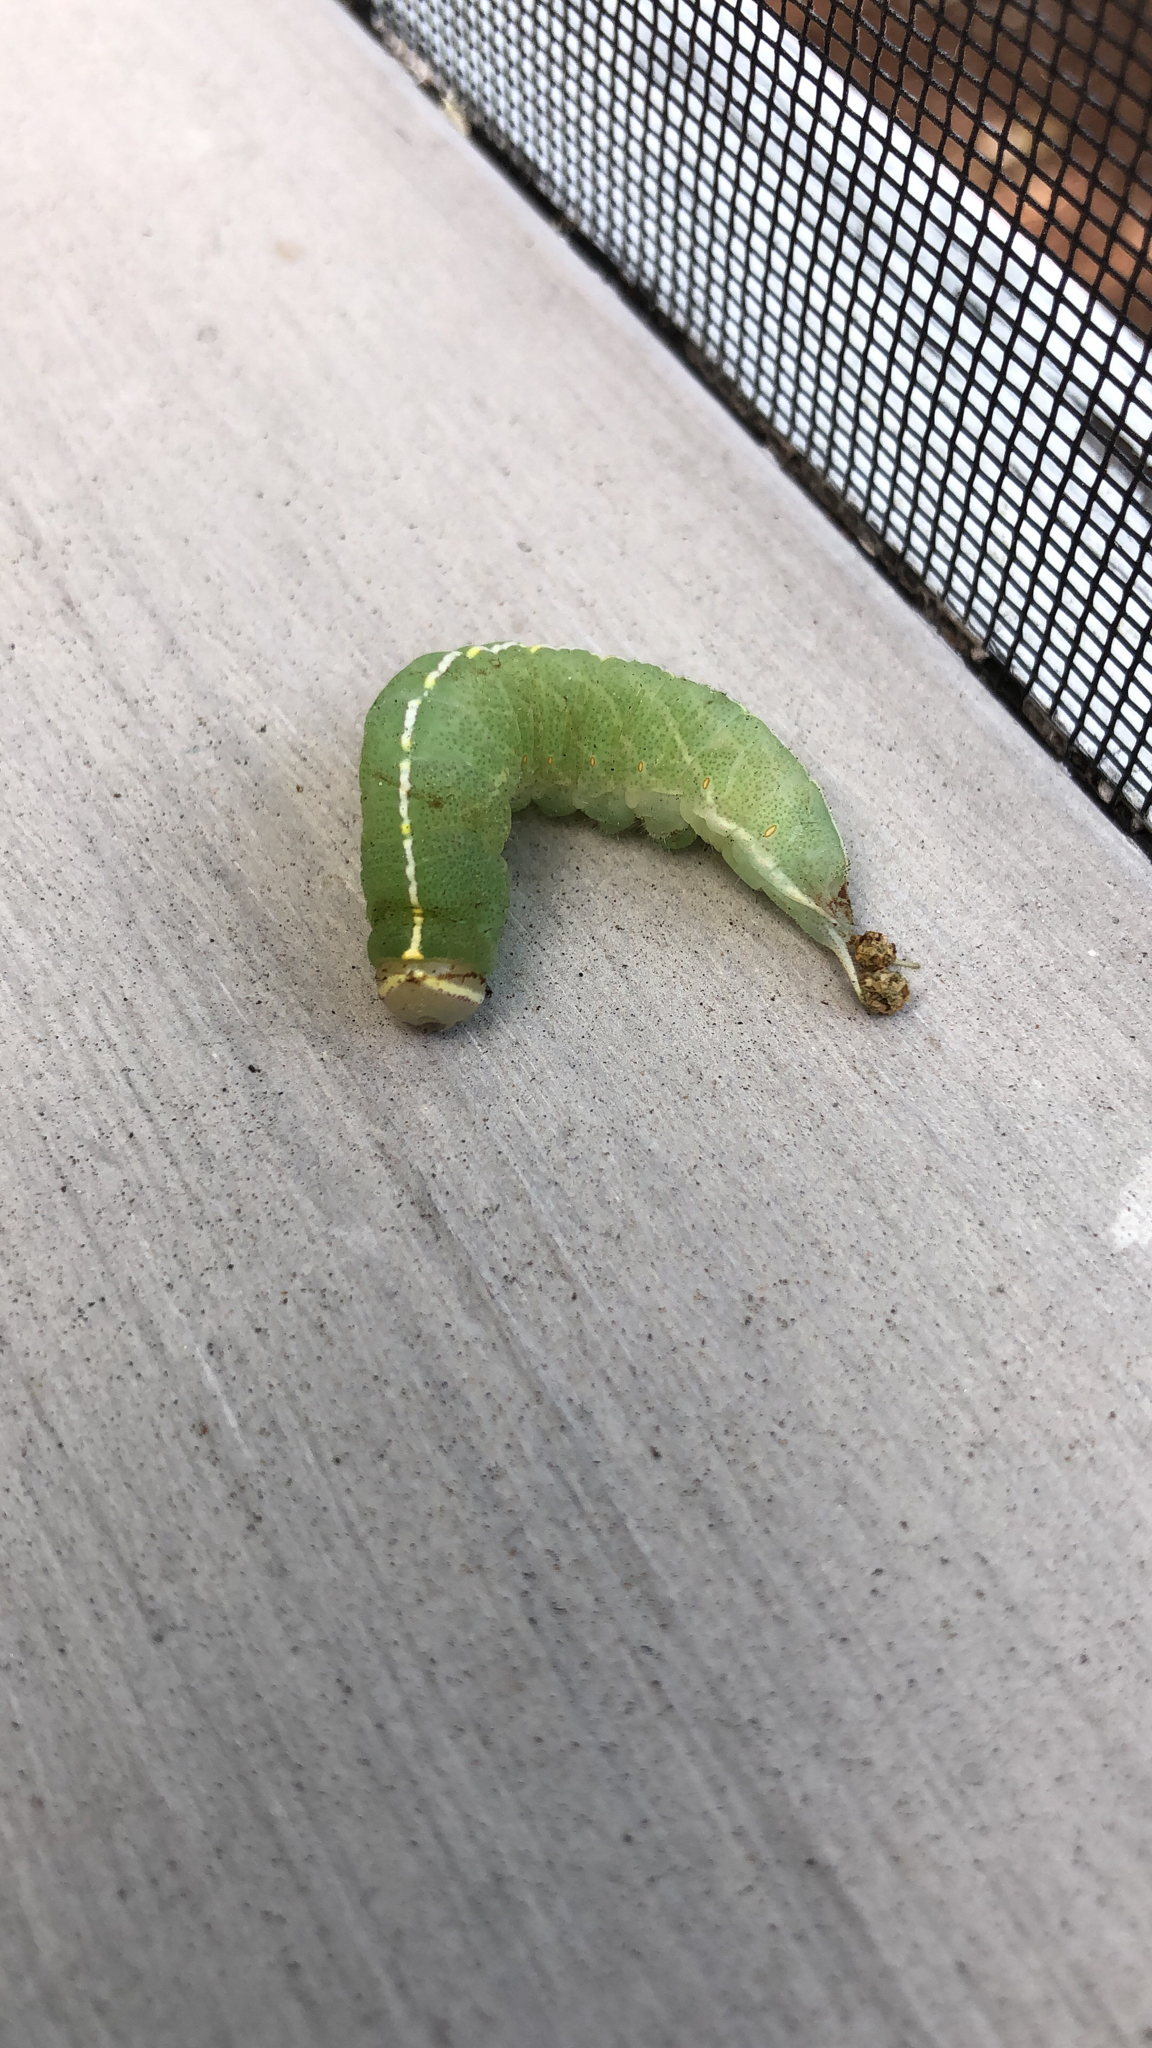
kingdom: Animalia
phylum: Arthropoda
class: Insecta
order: Lepidoptera
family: Notodontidae
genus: Macrurocampa
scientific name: Macrurocampa marthesia
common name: Mottled prominent
